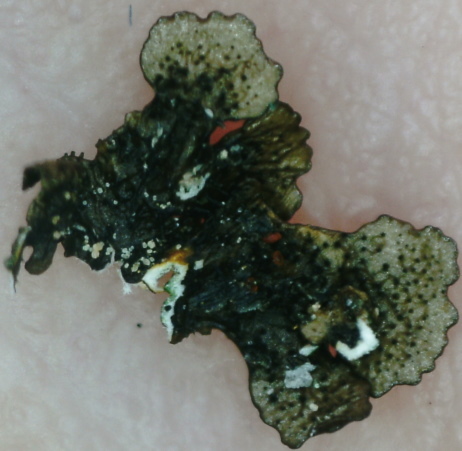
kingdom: Fungi
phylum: Ascomycota
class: Lecanoromycetes
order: Lecanorales
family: Parmeliaceae
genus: Melanelixia
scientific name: Melanelixia fuliginosa
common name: Shiny camouflage lichen
